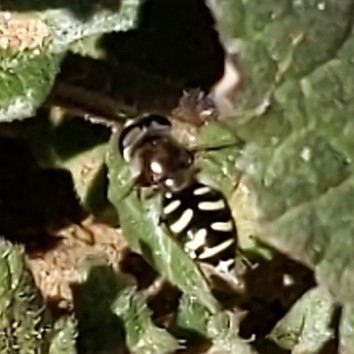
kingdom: Animalia
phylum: Arthropoda
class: Insecta
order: Diptera
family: Syrphidae
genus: Eupeodes
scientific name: Eupeodes volucris
